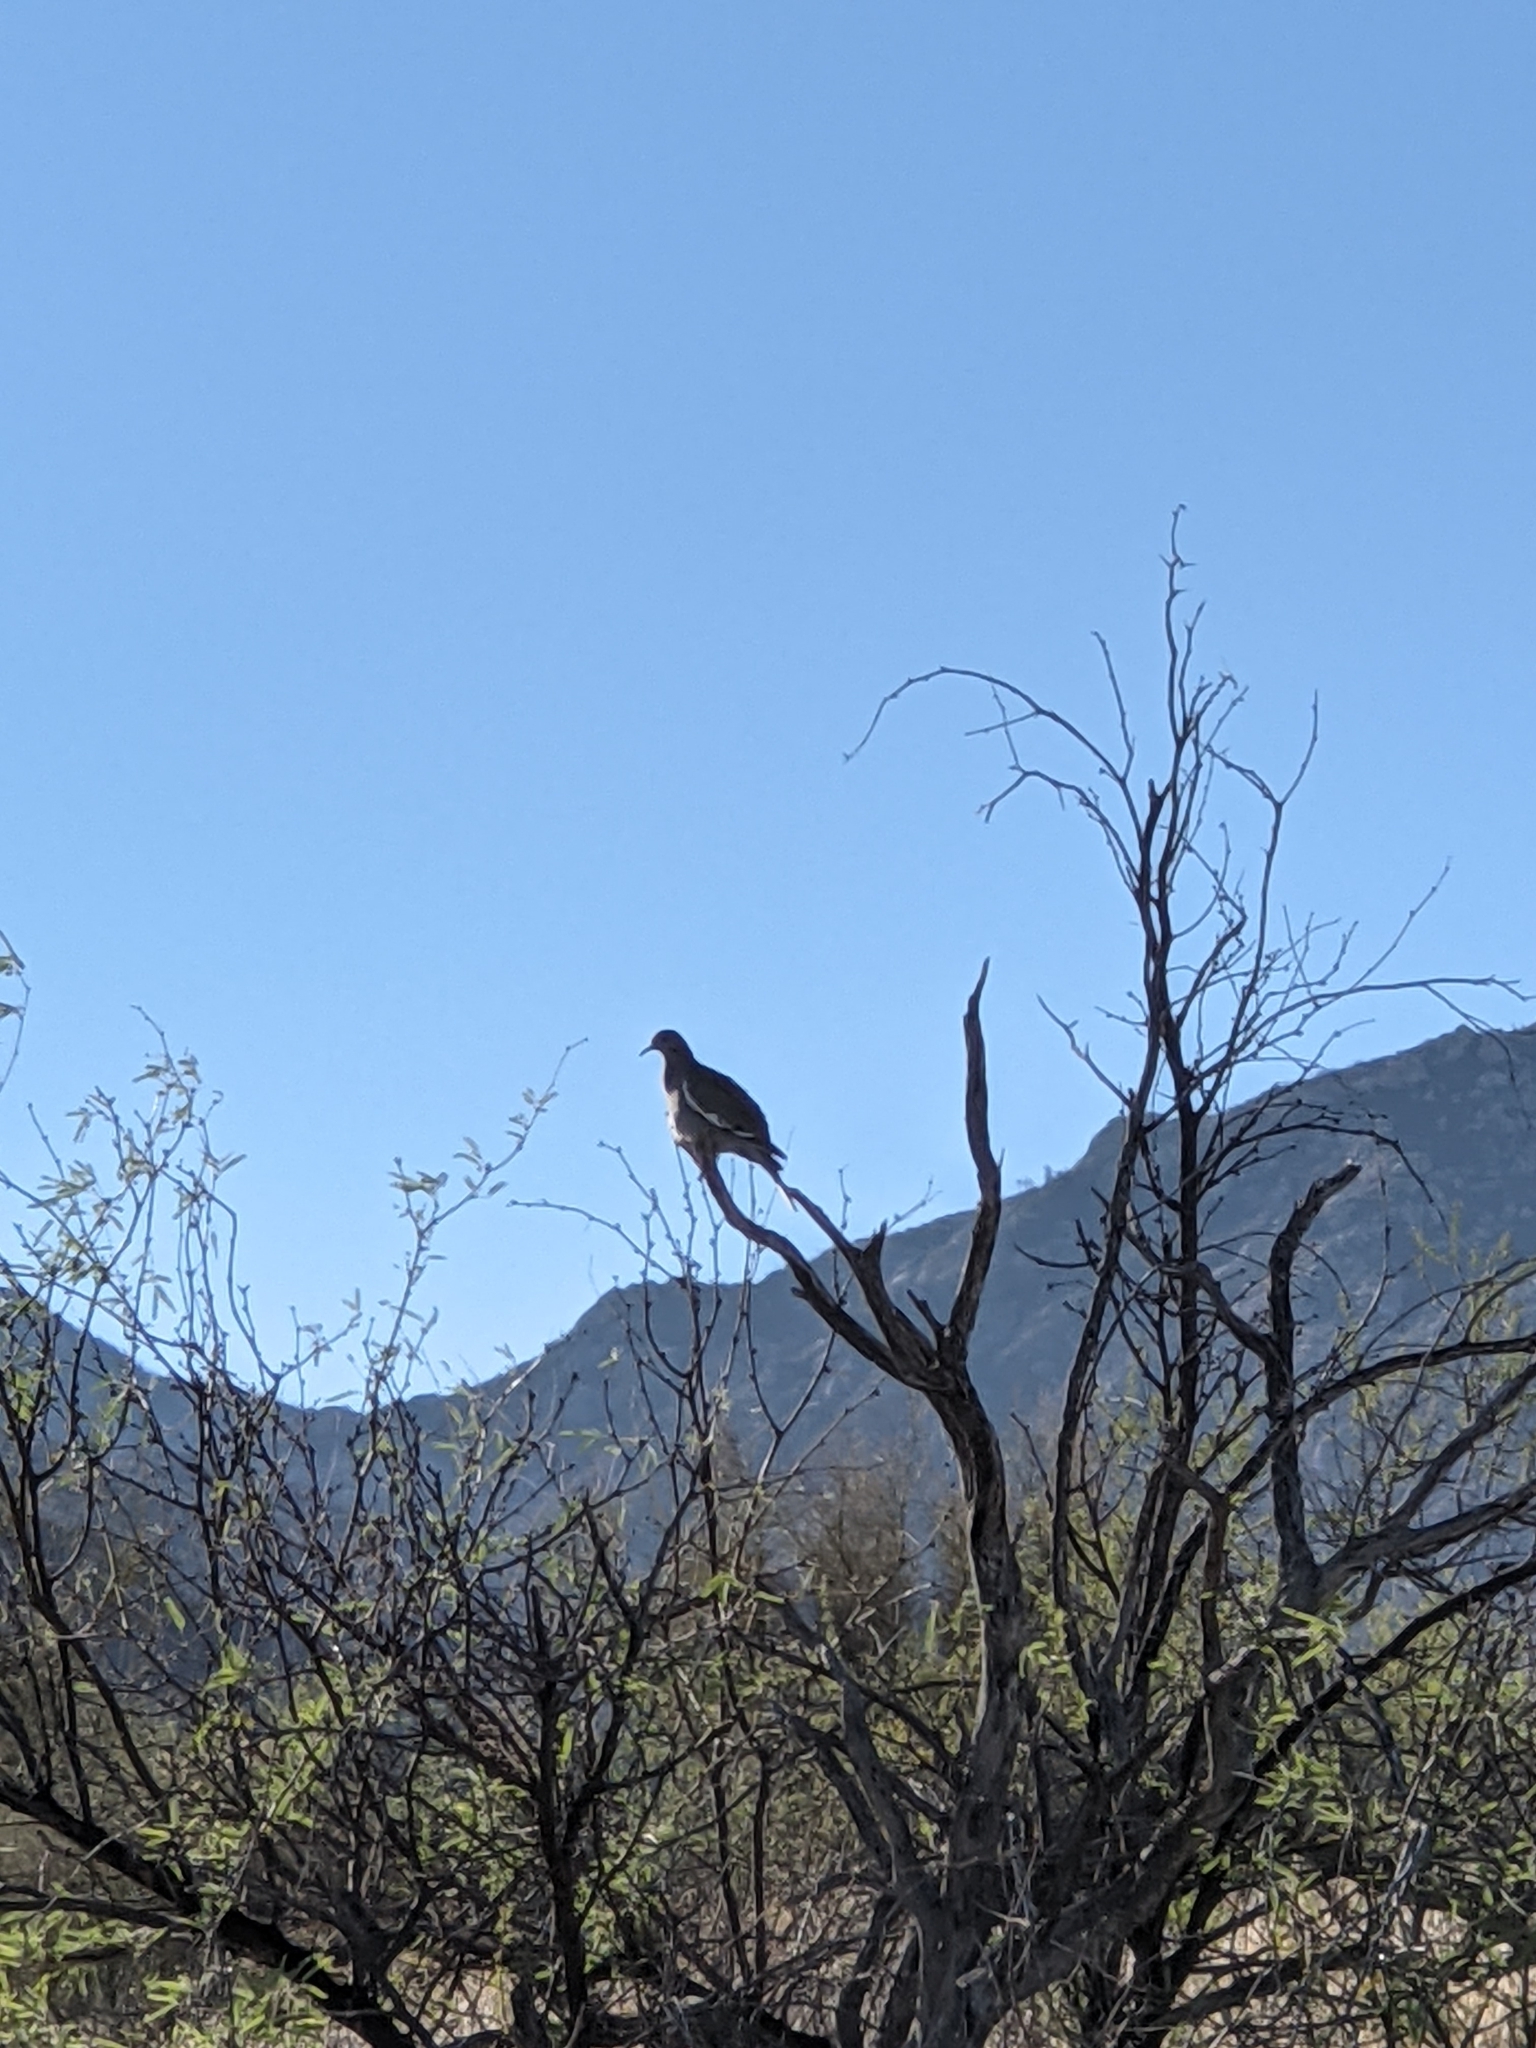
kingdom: Animalia
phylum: Chordata
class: Aves
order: Columbiformes
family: Columbidae
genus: Zenaida
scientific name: Zenaida asiatica
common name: White-winged dove
